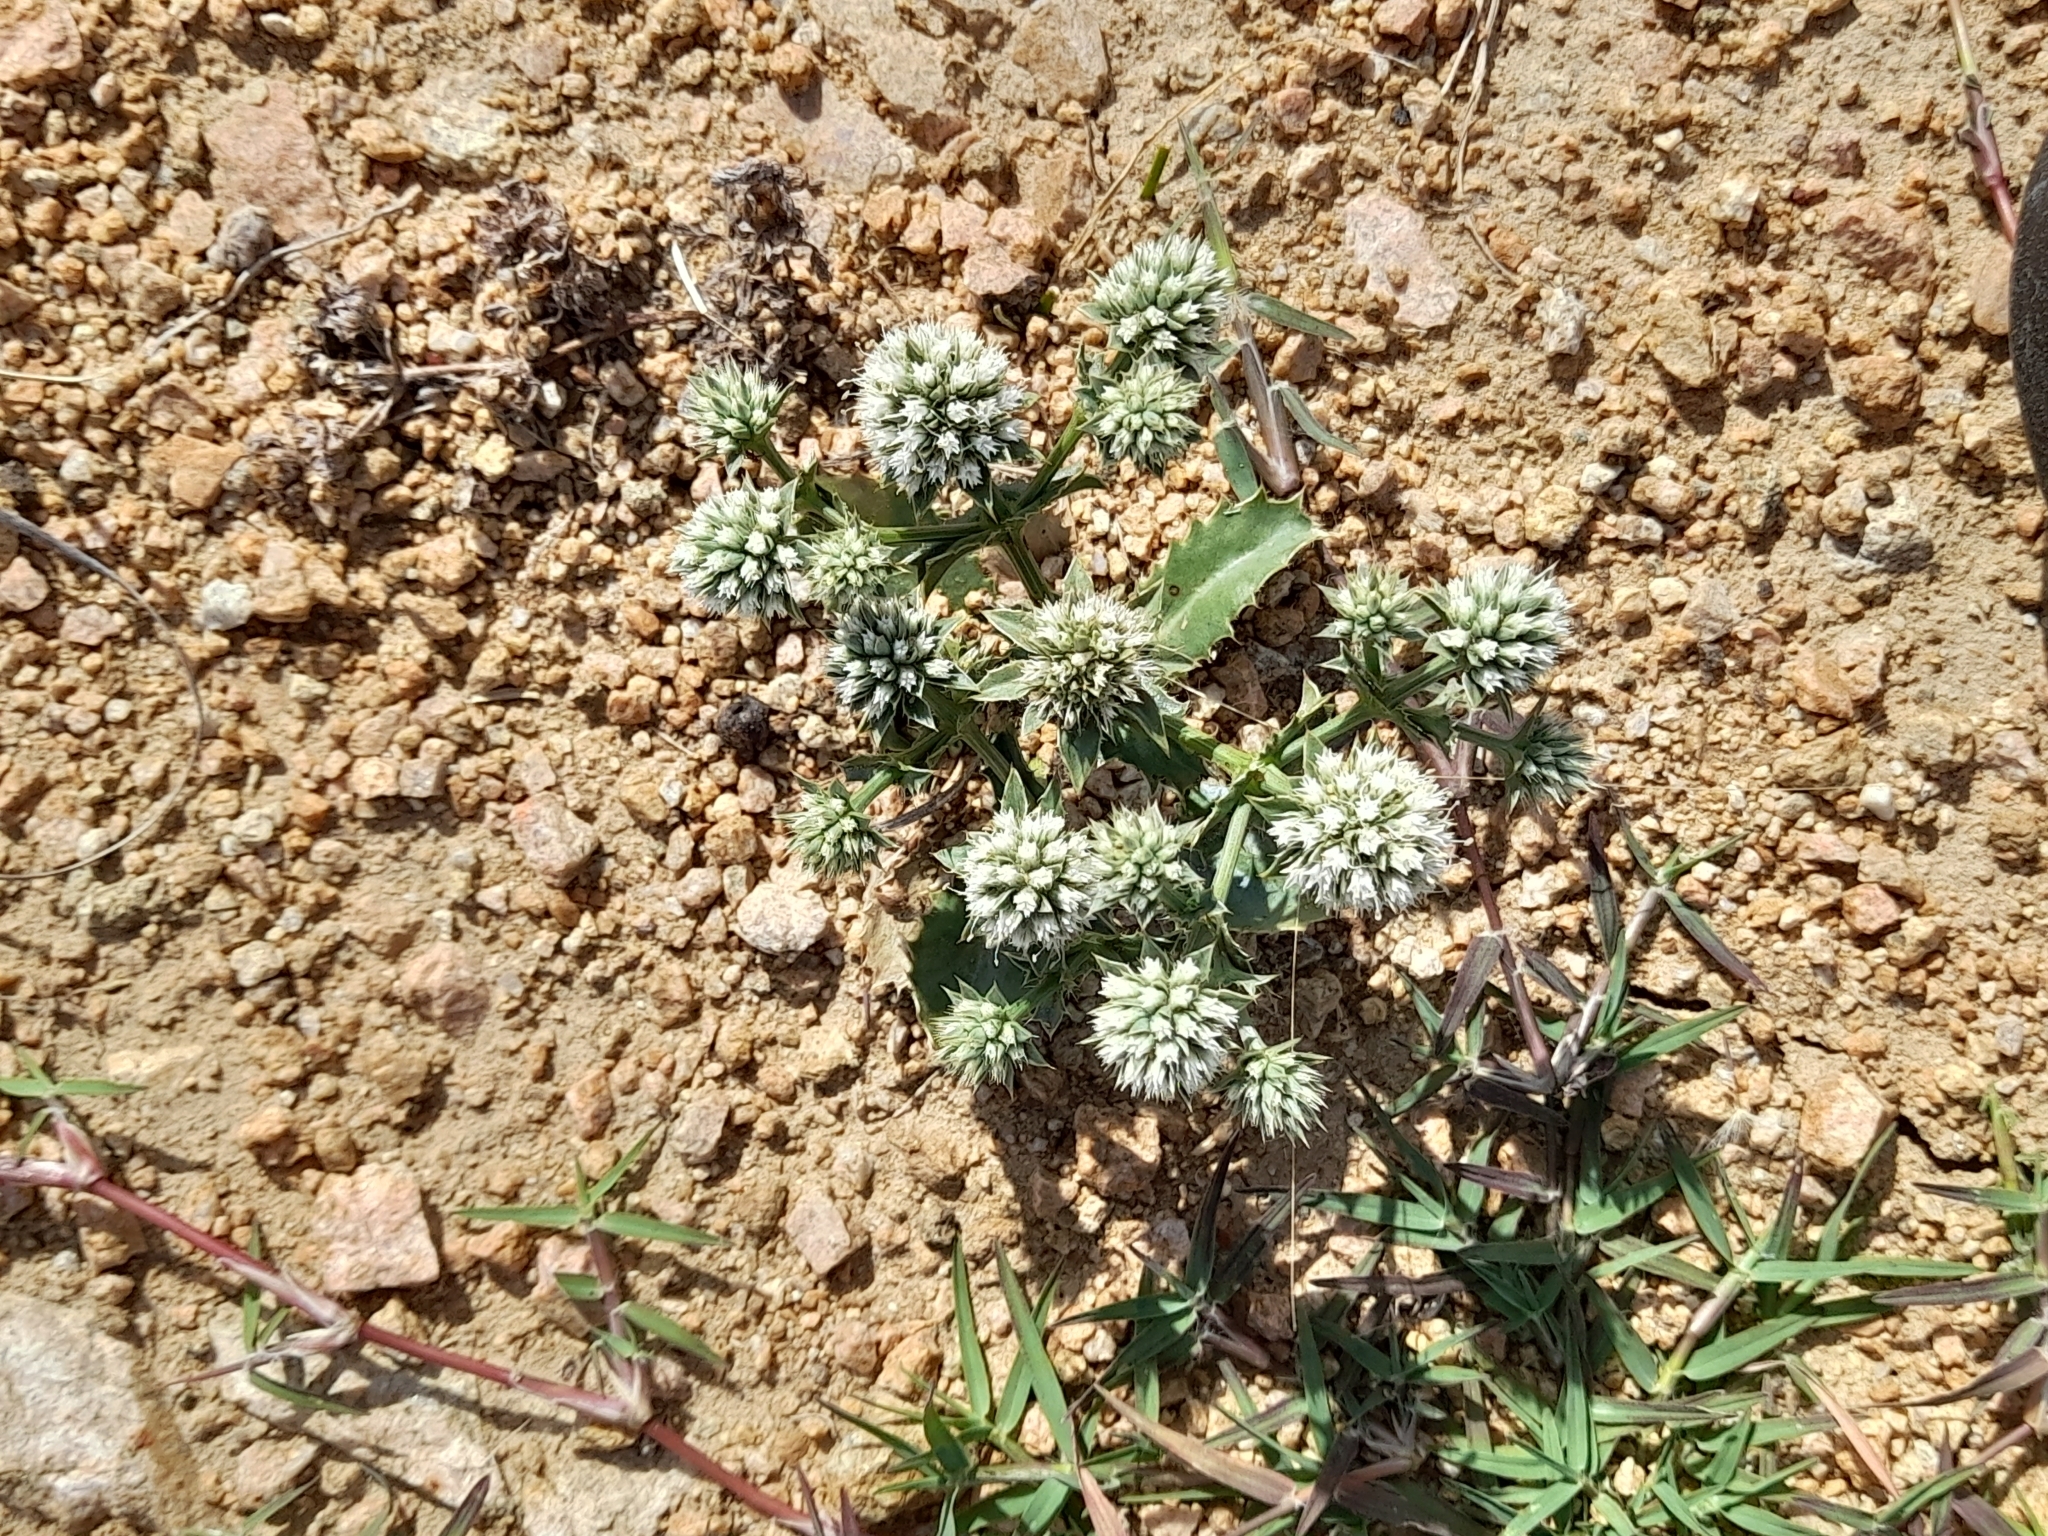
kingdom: Plantae
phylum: Tracheophyta
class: Magnoliopsida
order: Apiales
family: Apiaceae
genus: Eryngium
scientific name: Eryngium nudicaule
